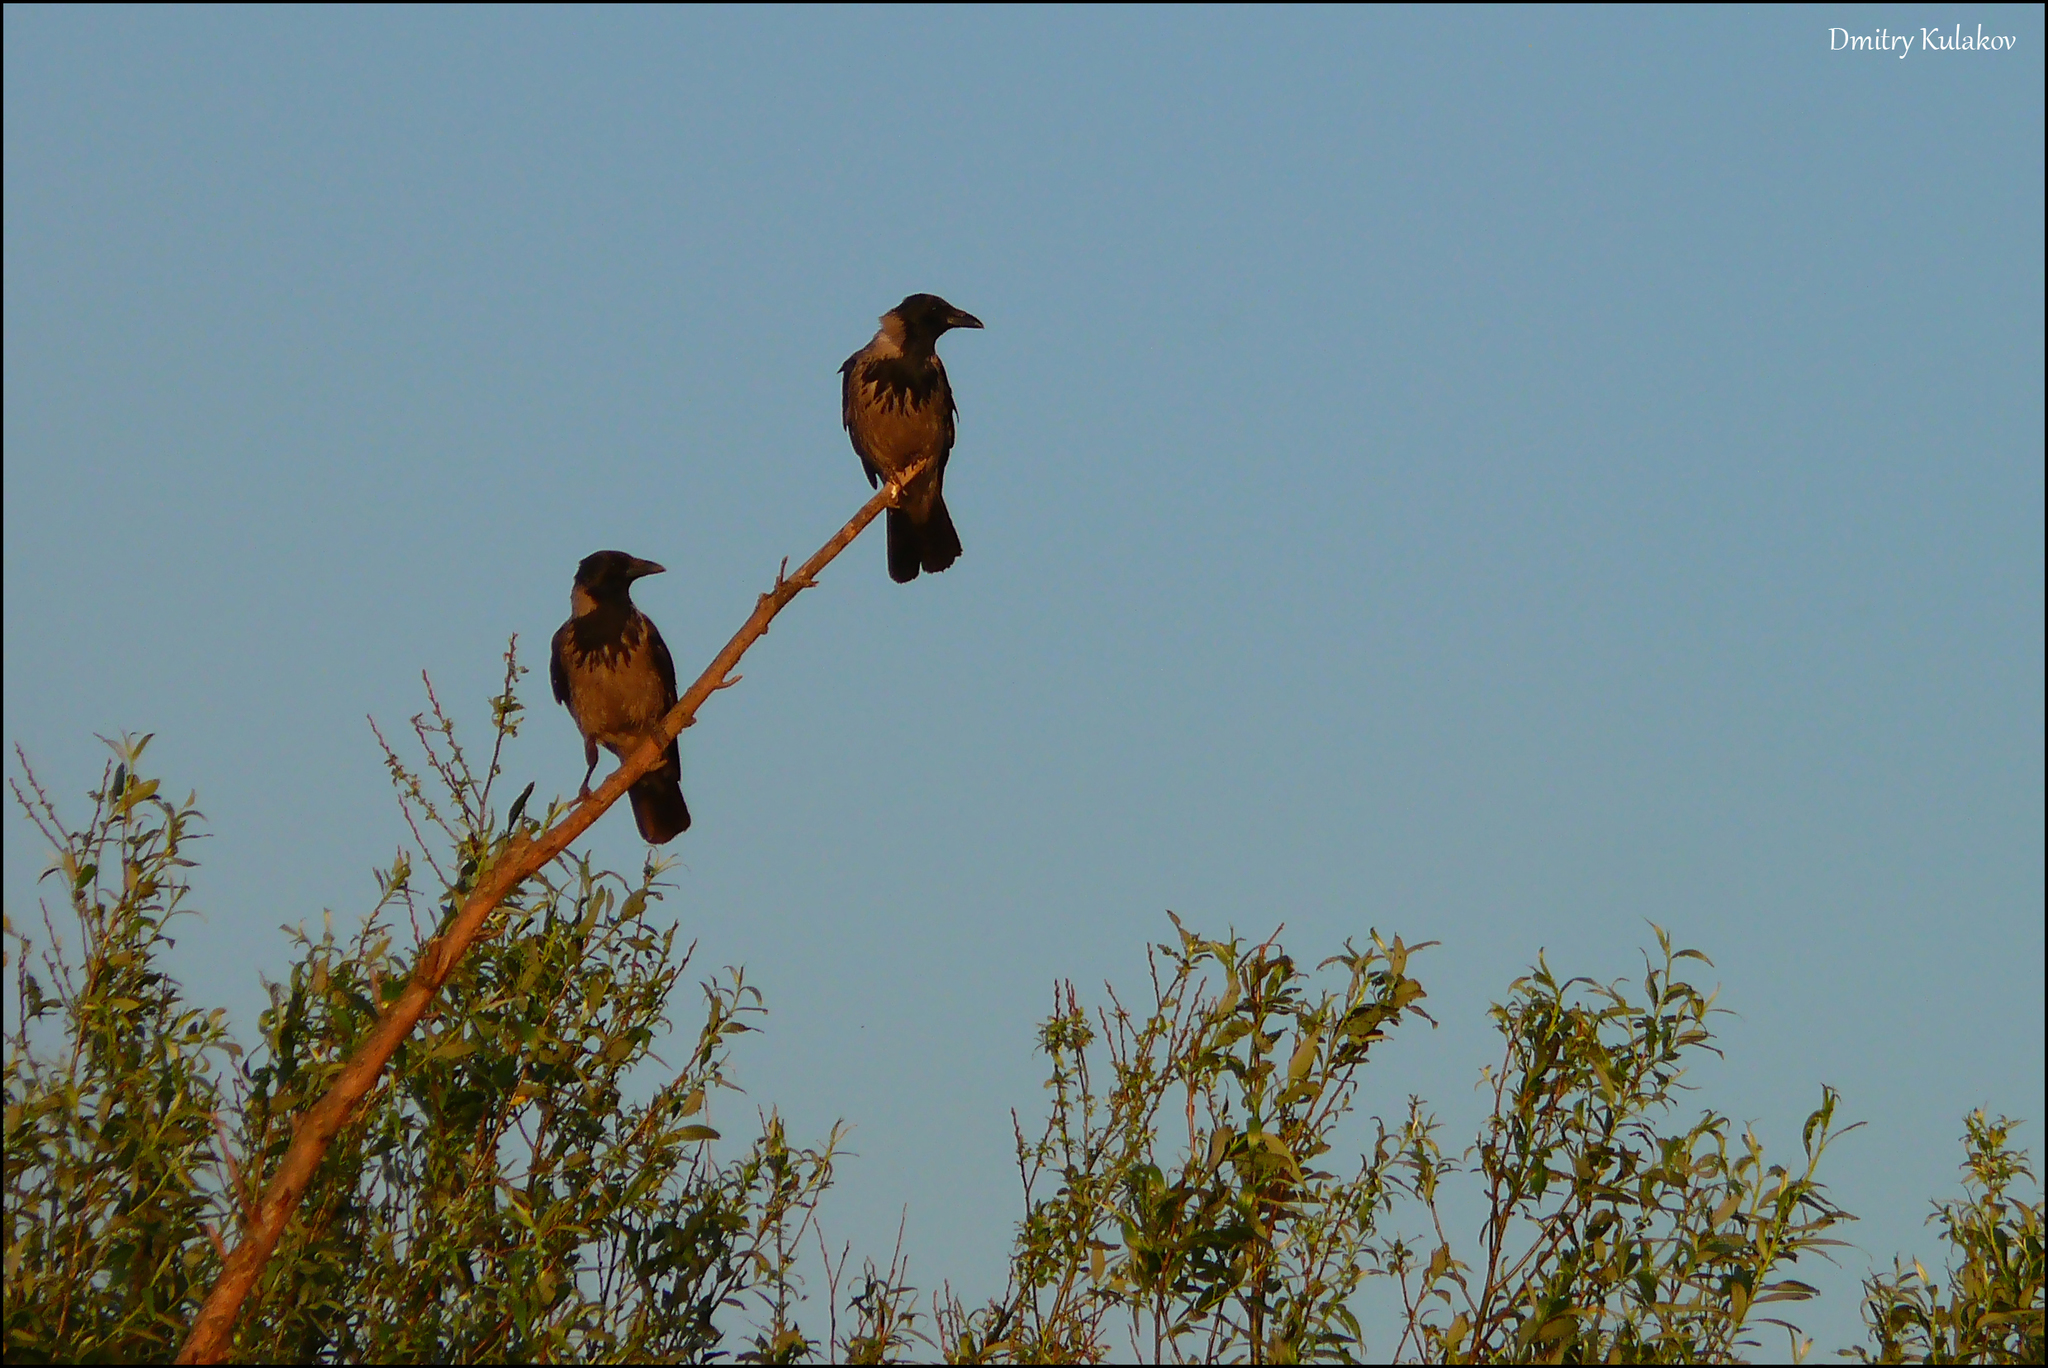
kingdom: Animalia
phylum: Chordata
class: Aves
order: Passeriformes
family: Corvidae
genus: Corvus
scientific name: Corvus cornix
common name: Hooded crow
